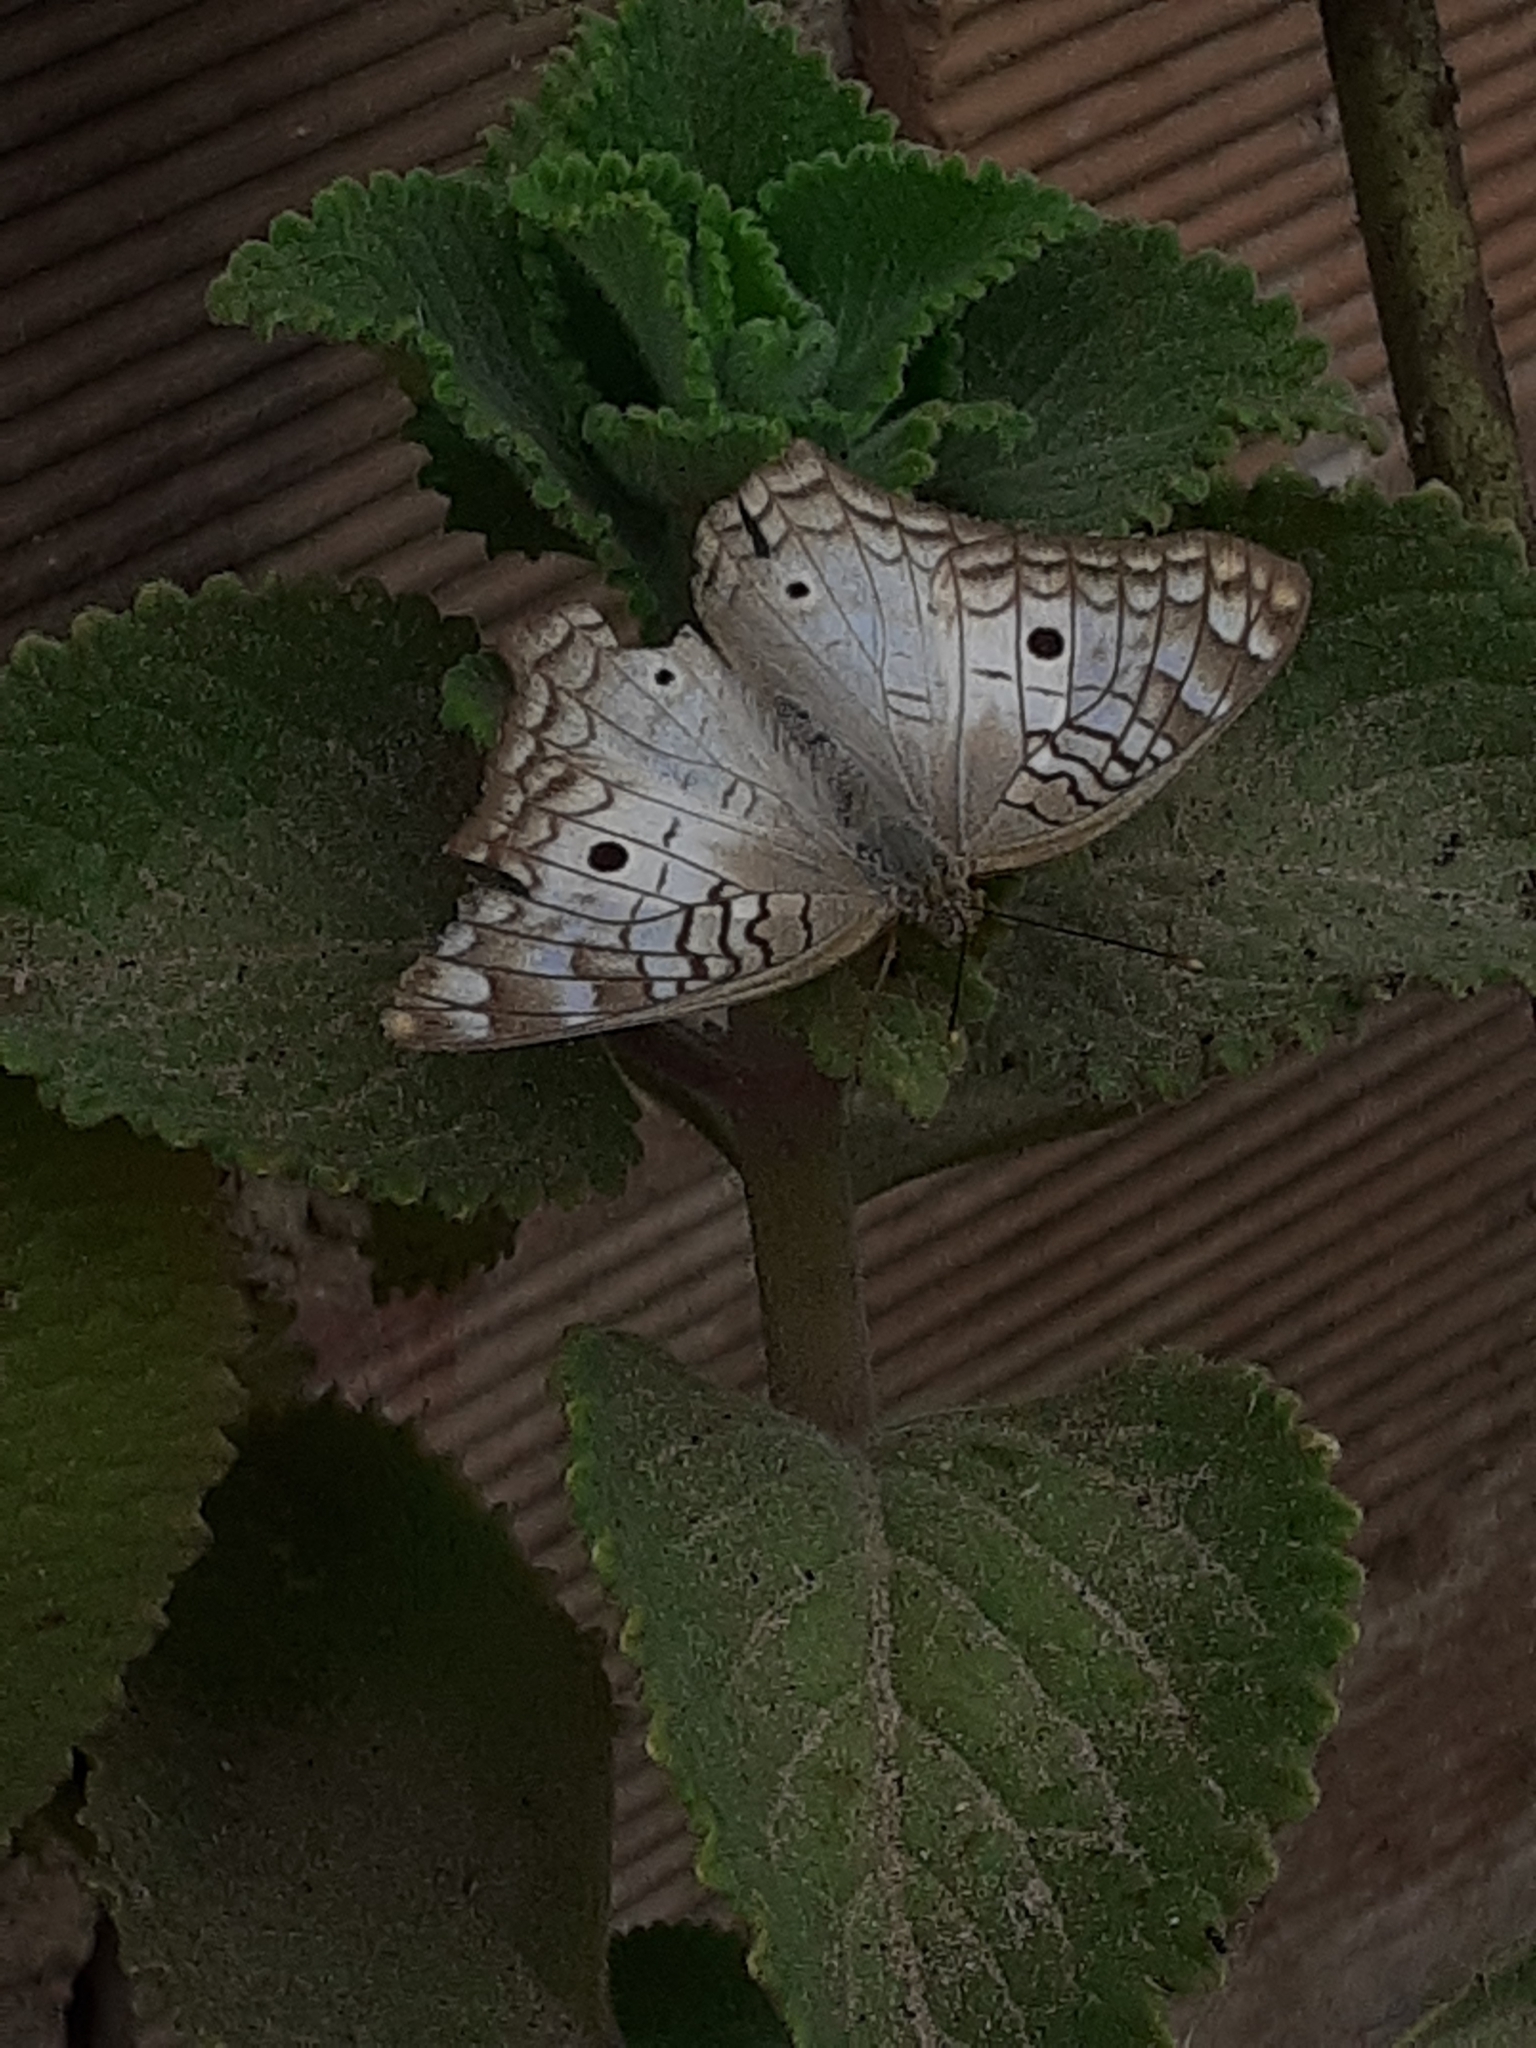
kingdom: Animalia
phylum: Arthropoda
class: Insecta
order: Lepidoptera
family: Nymphalidae
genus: Anartia
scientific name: Anartia jatrophae
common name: White peacock
